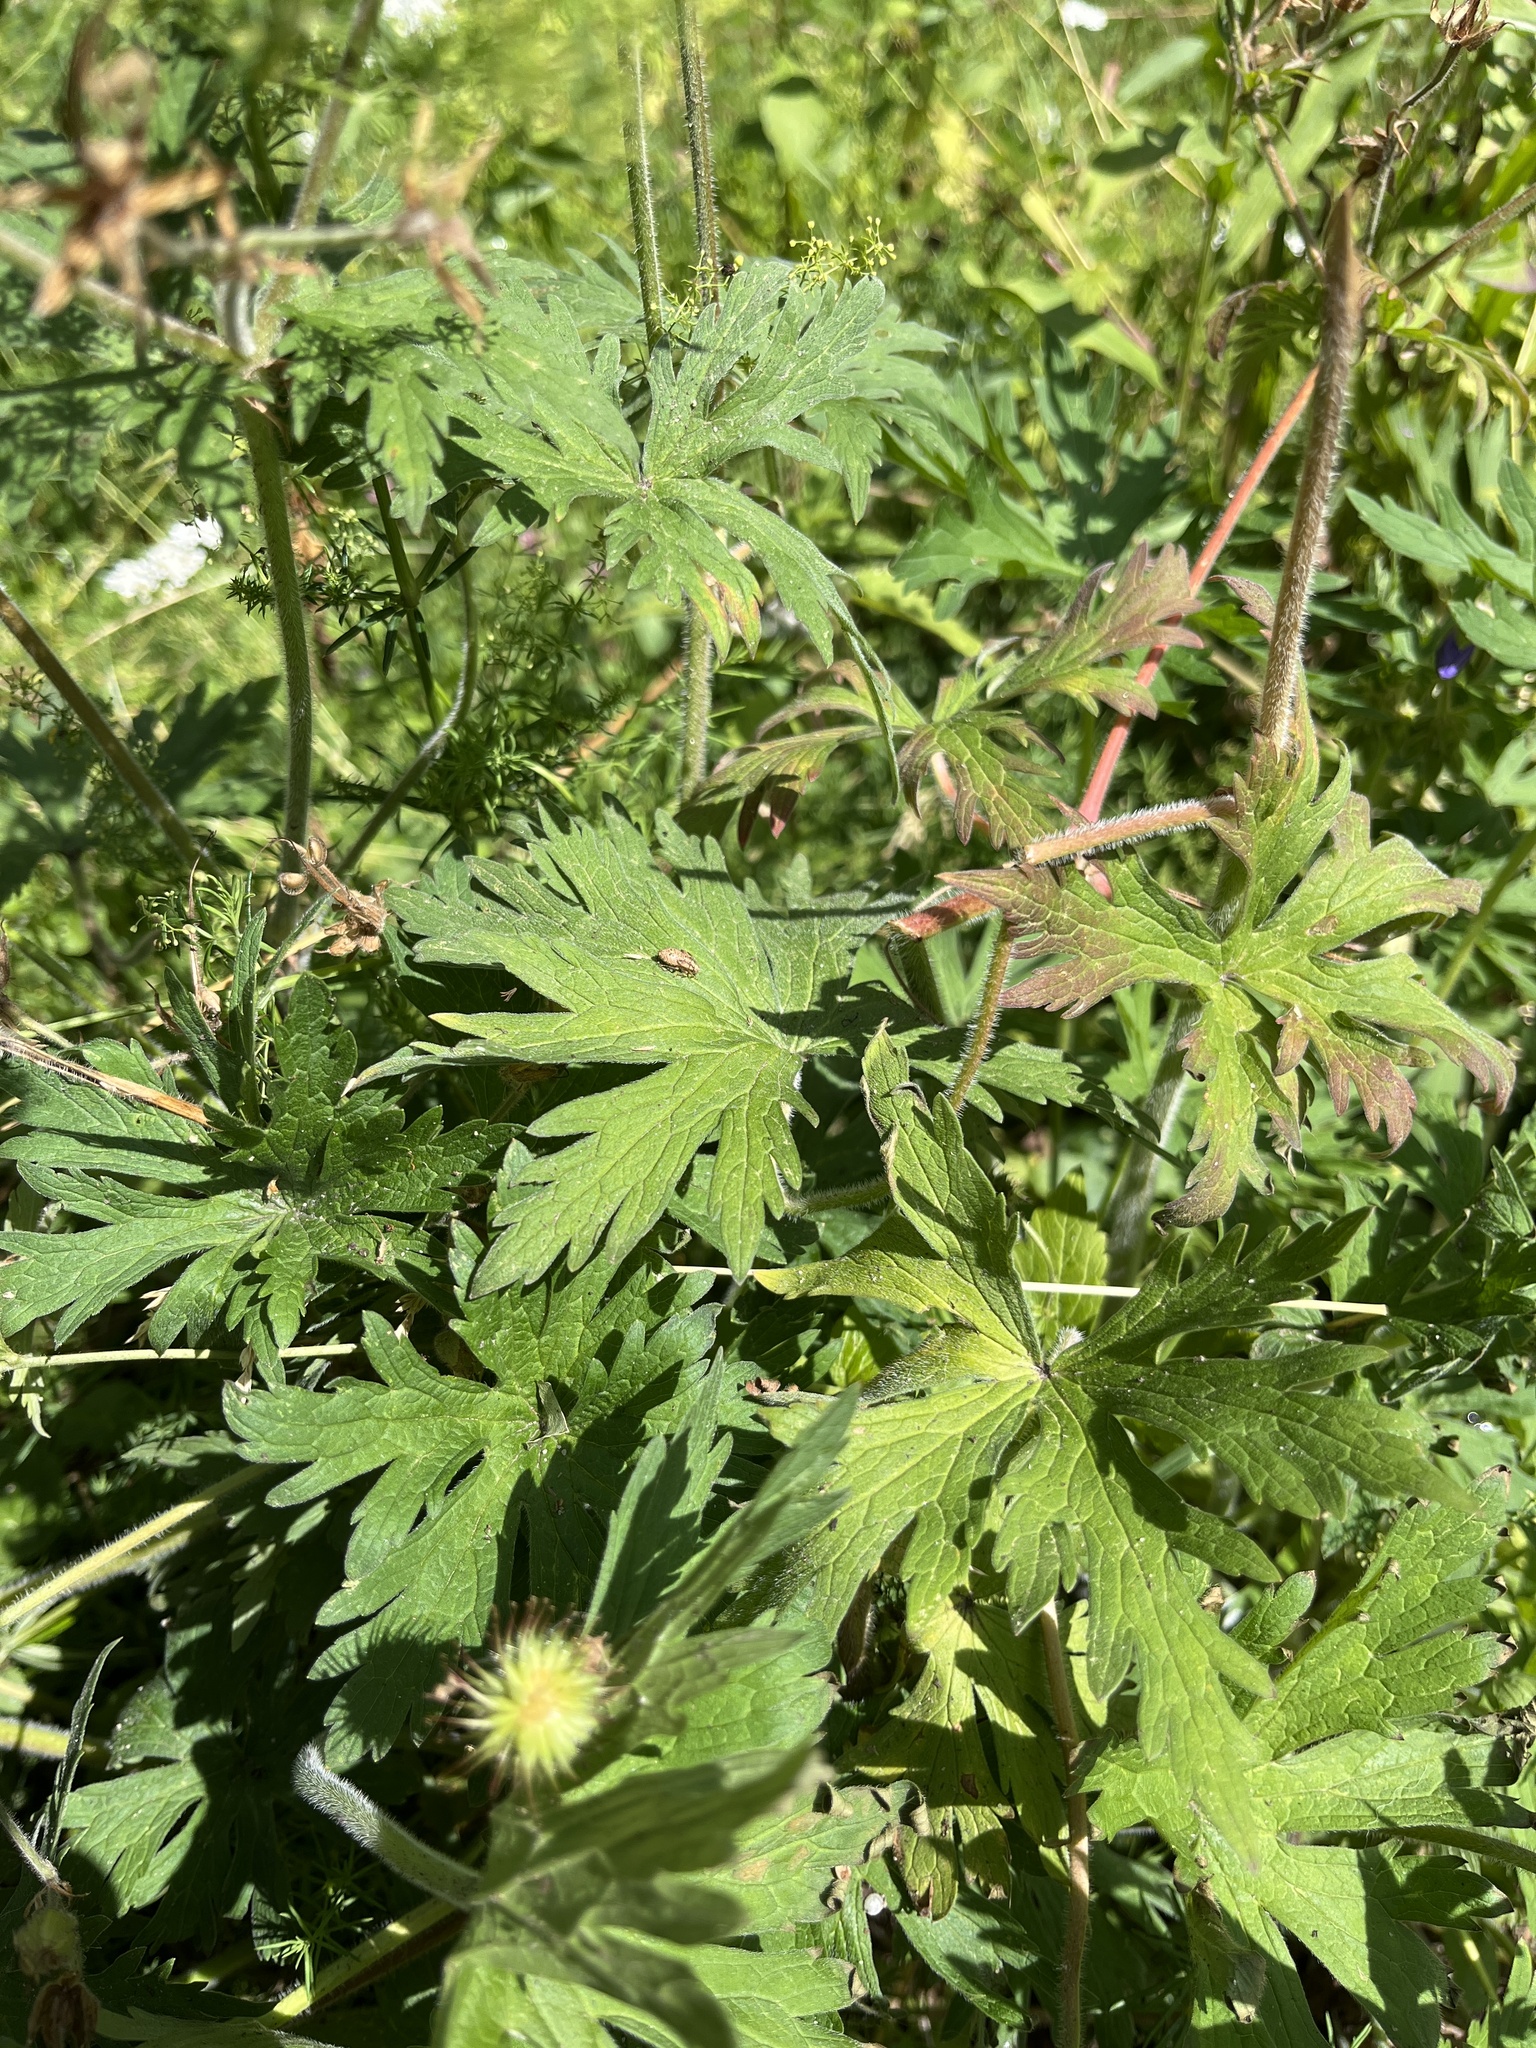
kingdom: Plantae
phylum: Tracheophyta
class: Magnoliopsida
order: Geraniales
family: Geraniaceae
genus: Geranium
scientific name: Geranium pratense
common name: Meadow crane's-bill
